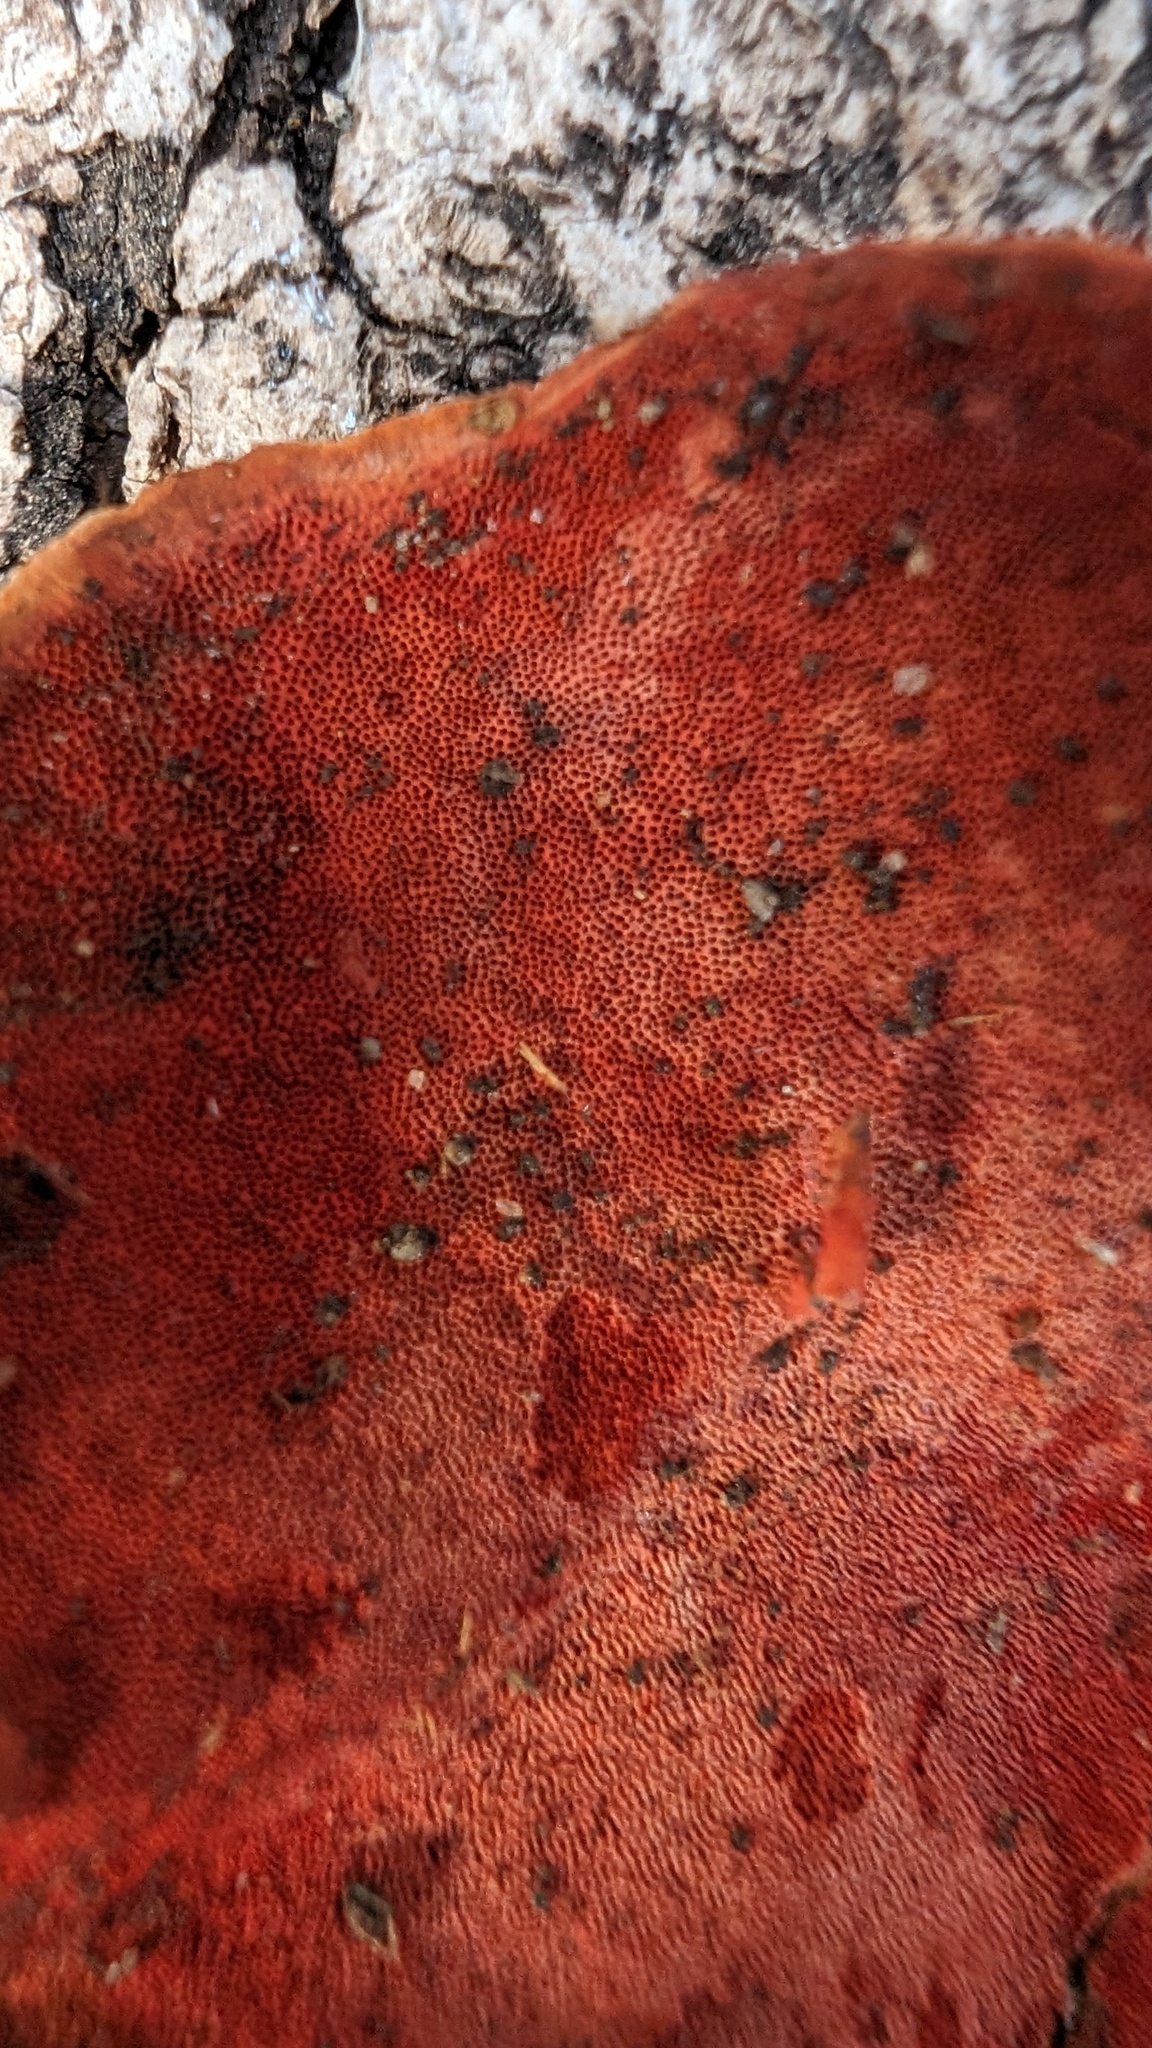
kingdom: Fungi
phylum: Basidiomycota
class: Agaricomycetes
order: Polyporales
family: Polyporaceae
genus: Trametes
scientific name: Trametes coccinea
